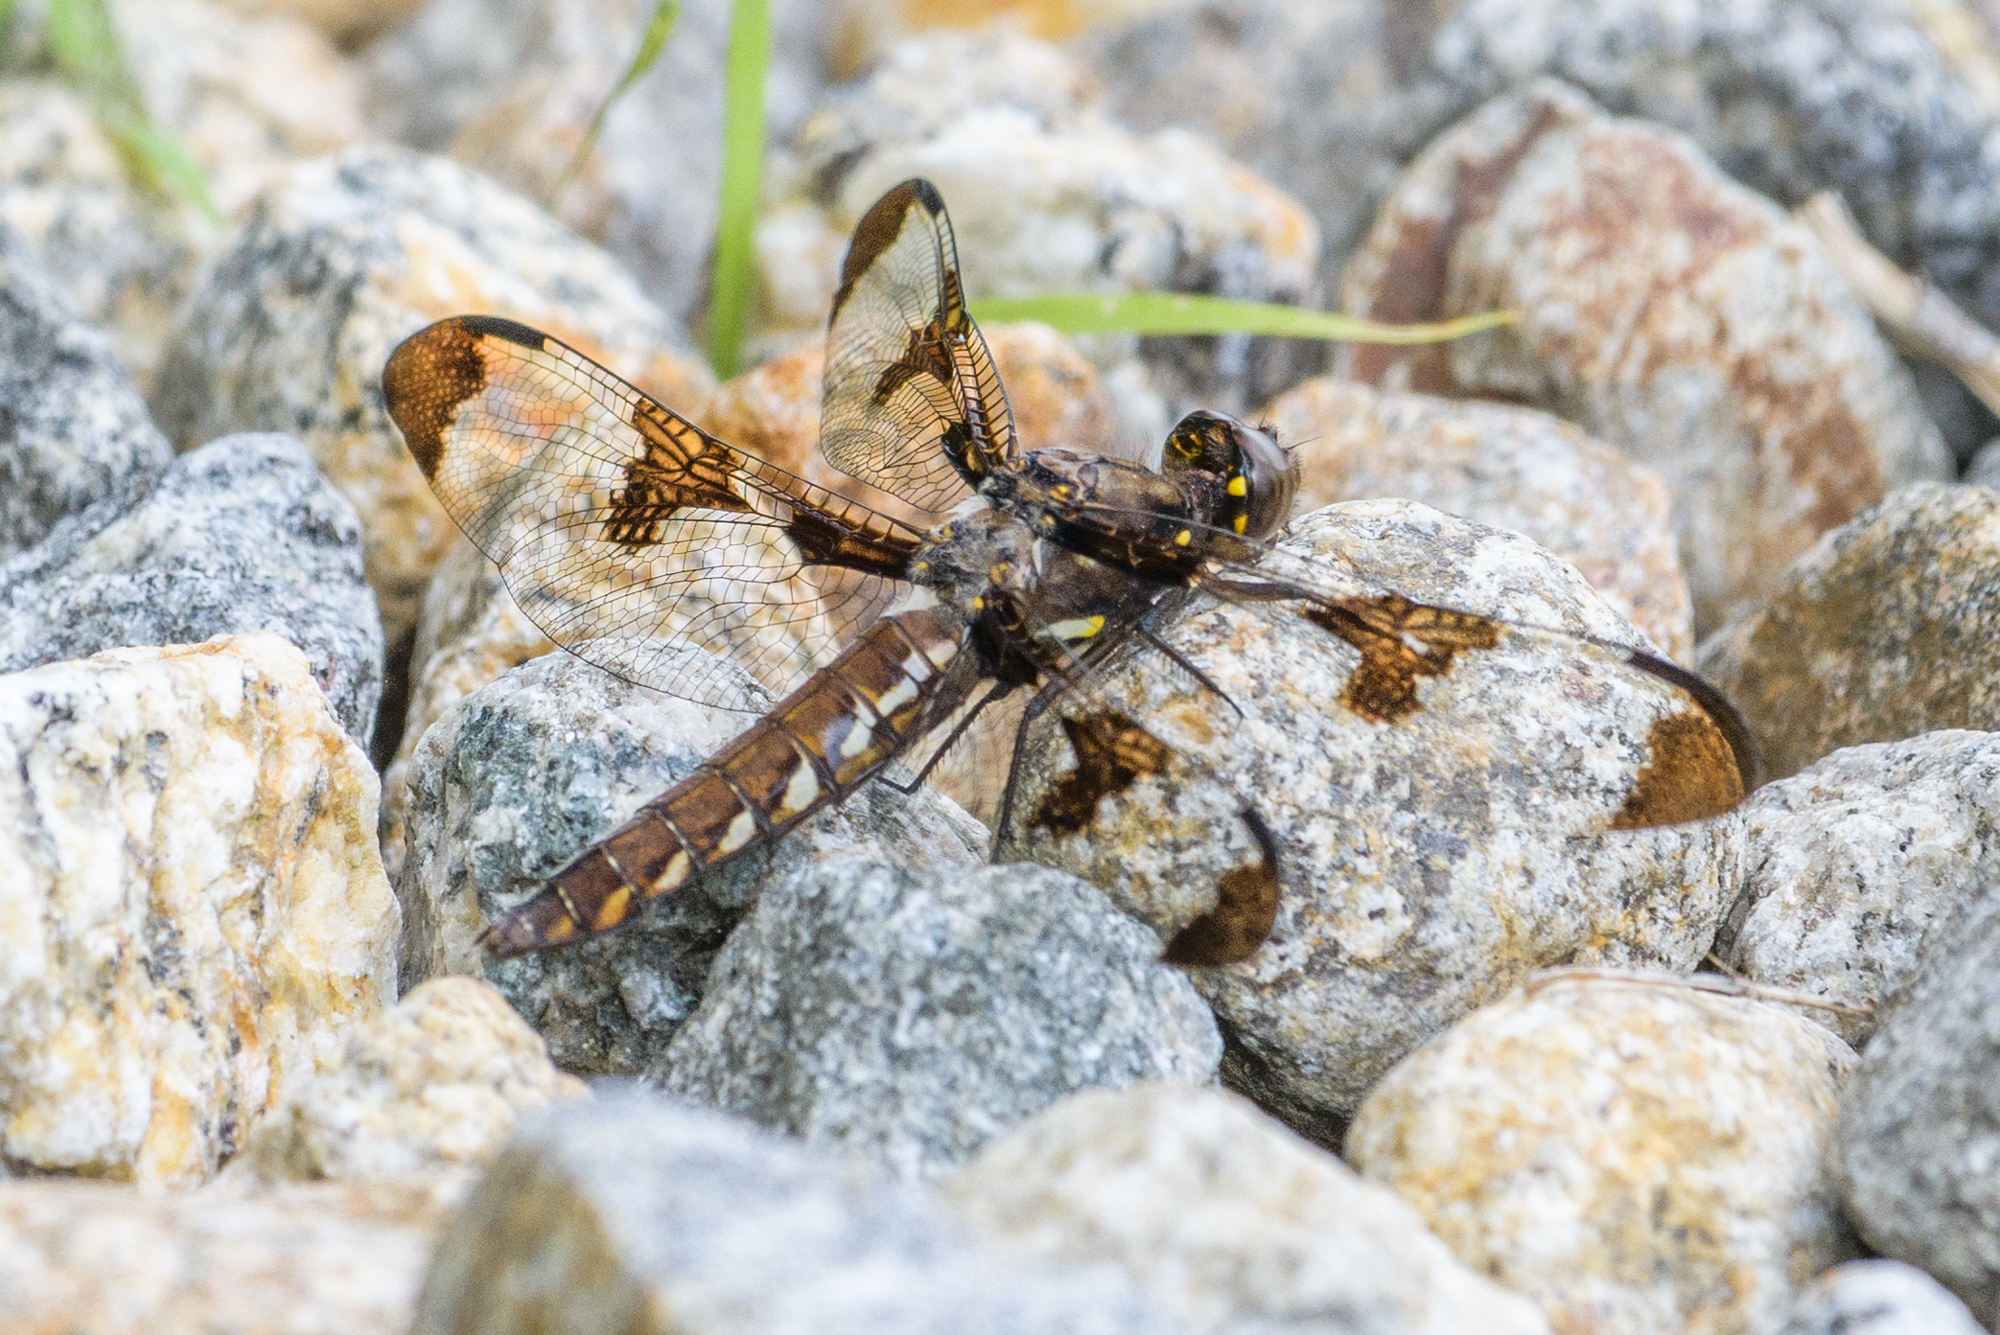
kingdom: Animalia
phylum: Arthropoda
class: Insecta
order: Odonata
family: Libellulidae
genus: Plathemis
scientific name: Plathemis lydia
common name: Common whitetail
